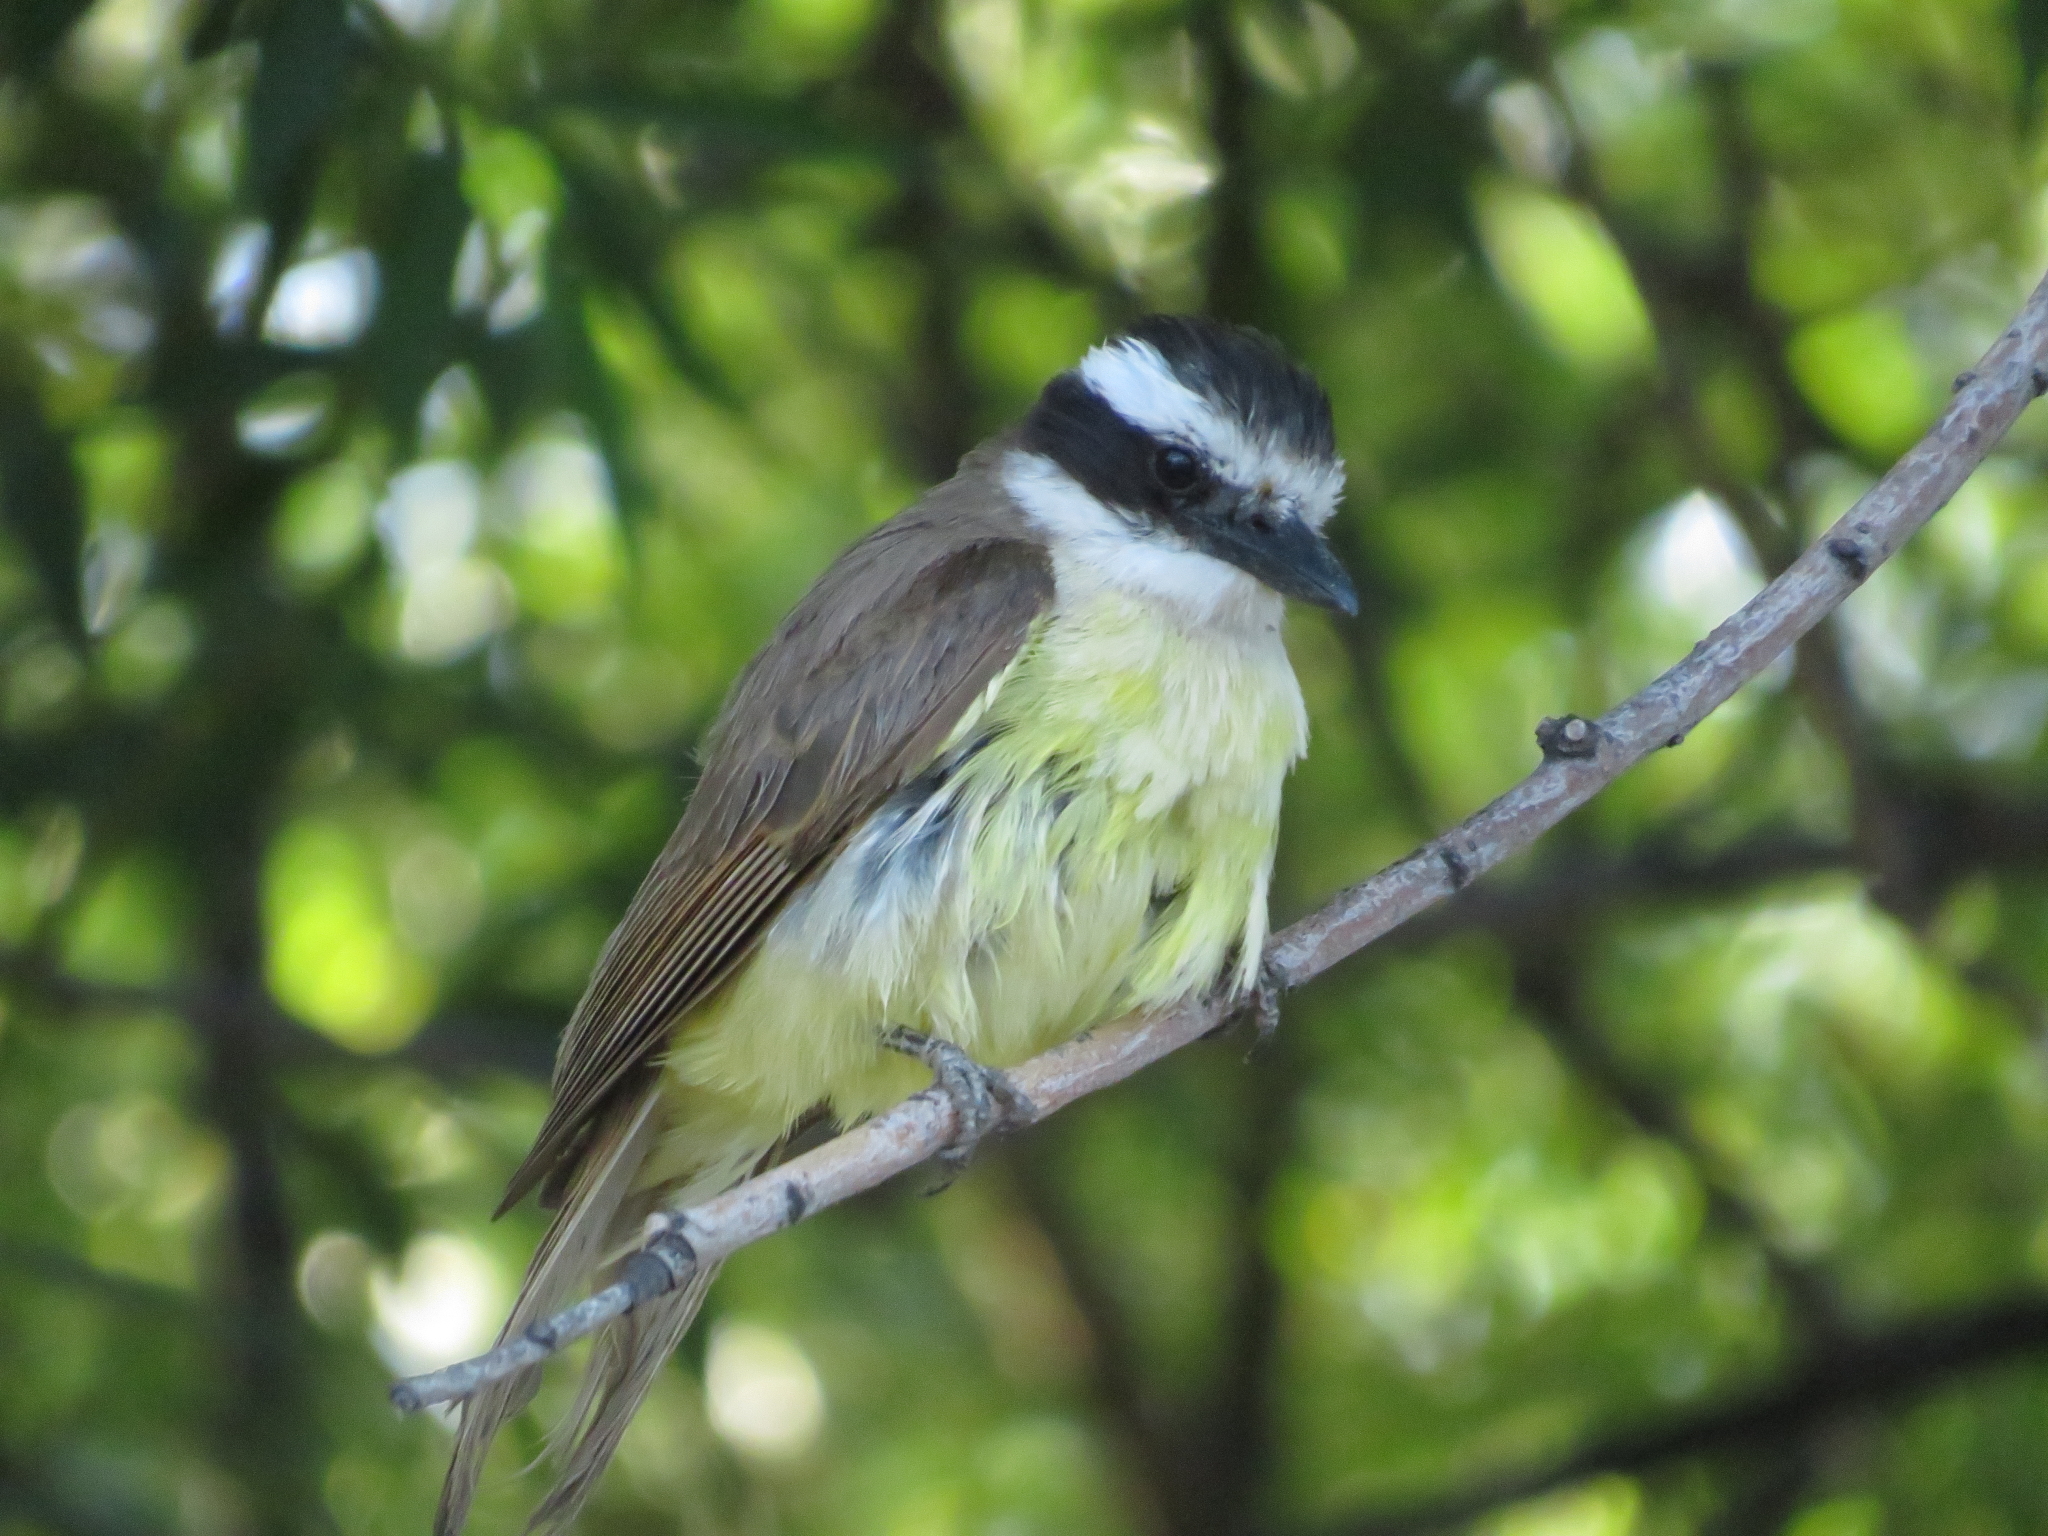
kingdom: Animalia
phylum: Chordata
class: Aves
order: Passeriformes
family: Tyrannidae
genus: Pitangus
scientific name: Pitangus sulphuratus
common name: Great kiskadee
